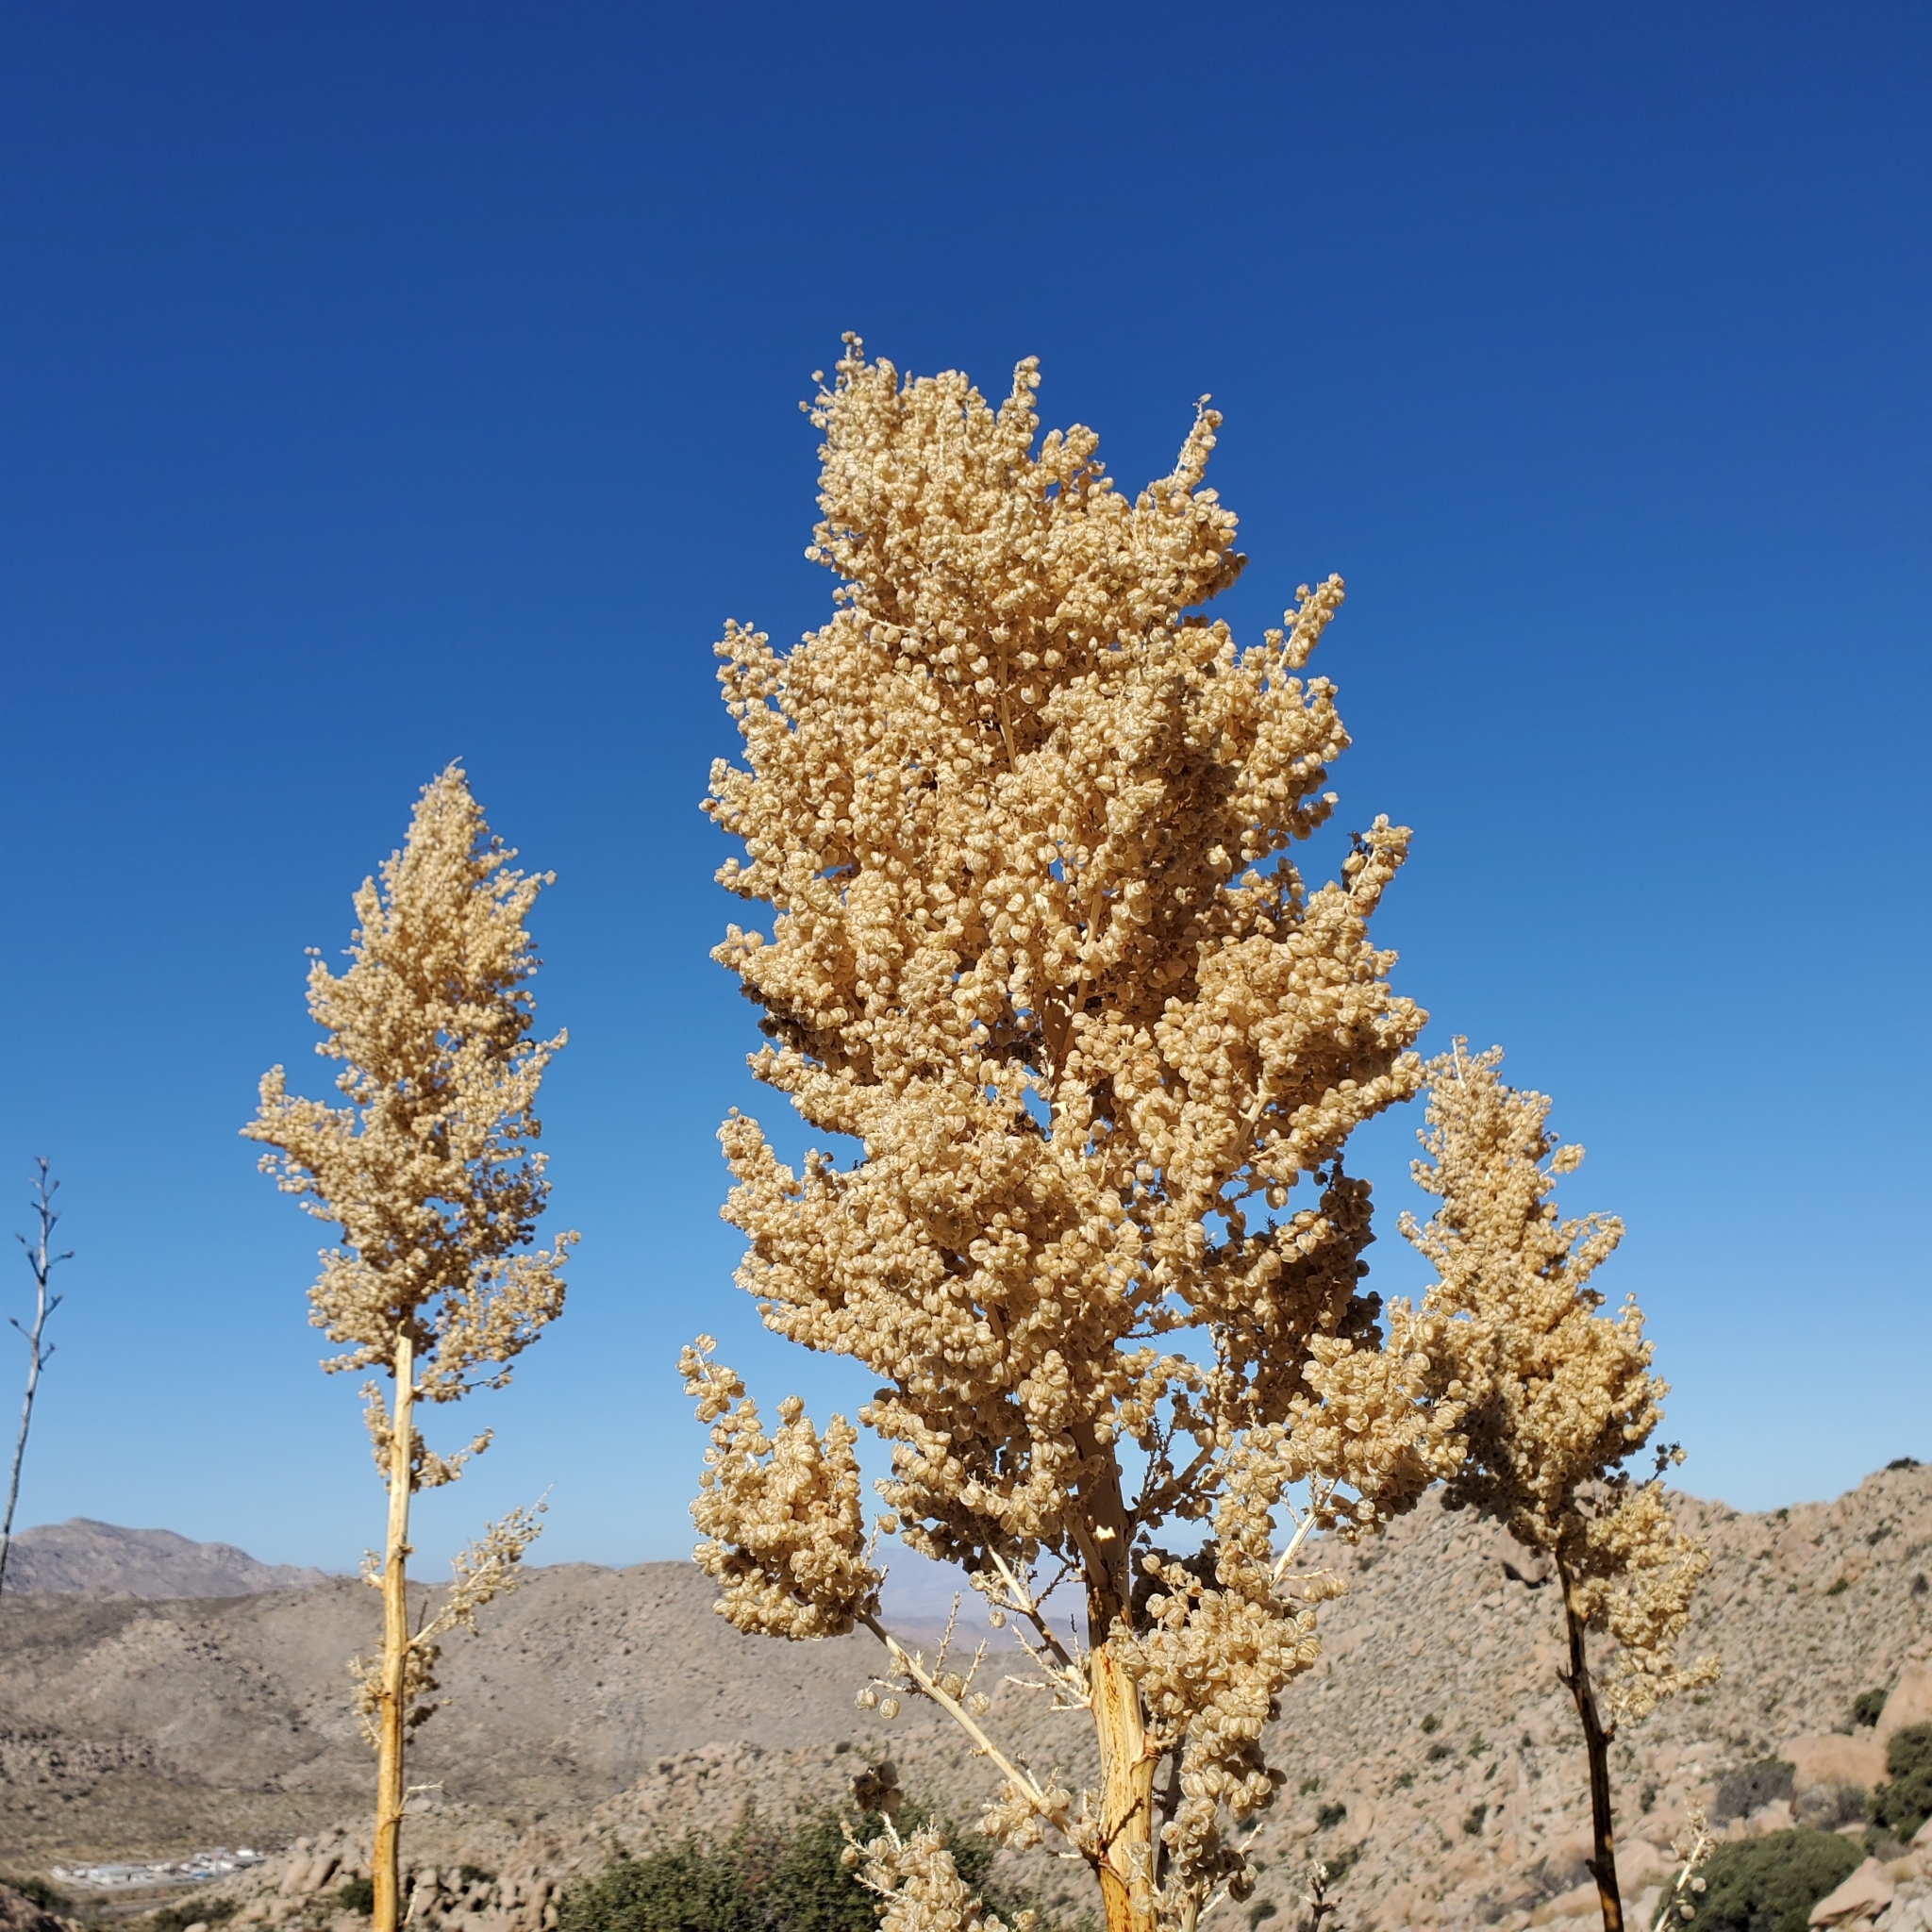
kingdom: Plantae
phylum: Tracheophyta
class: Liliopsida
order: Asparagales
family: Asparagaceae
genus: Nolina
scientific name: Nolina bigelovii
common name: Bigelow bear-grass
